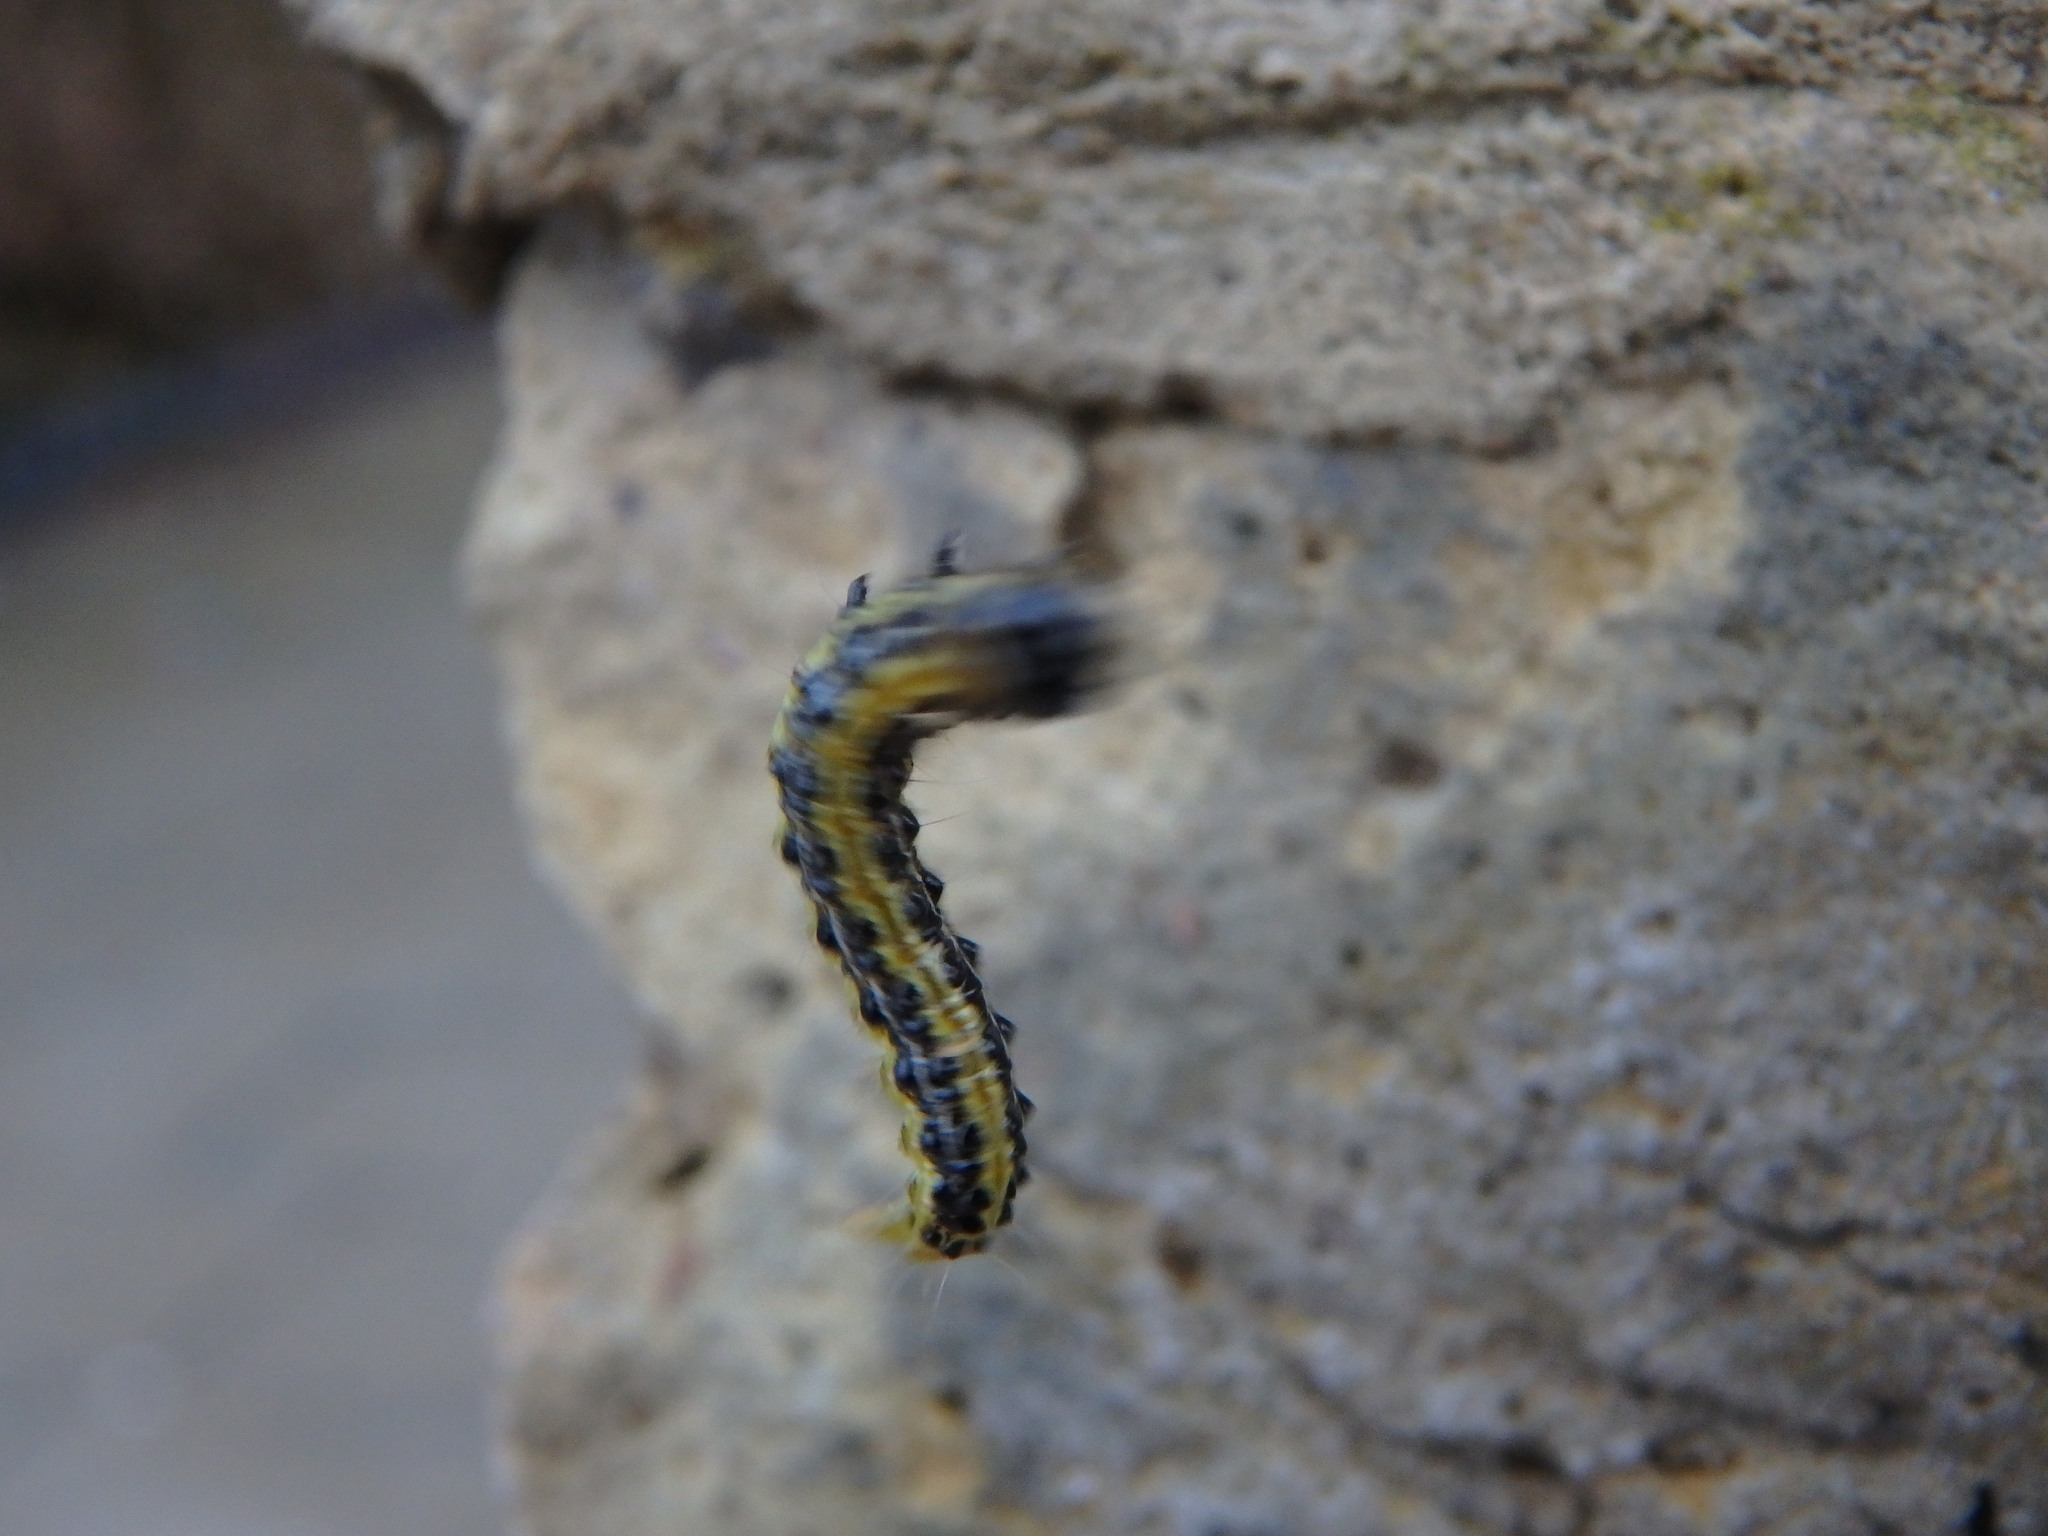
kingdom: Animalia
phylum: Arthropoda
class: Insecta
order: Lepidoptera
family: Crambidae
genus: Cydalima
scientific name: Cydalima perspectalis
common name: Box tree moth
